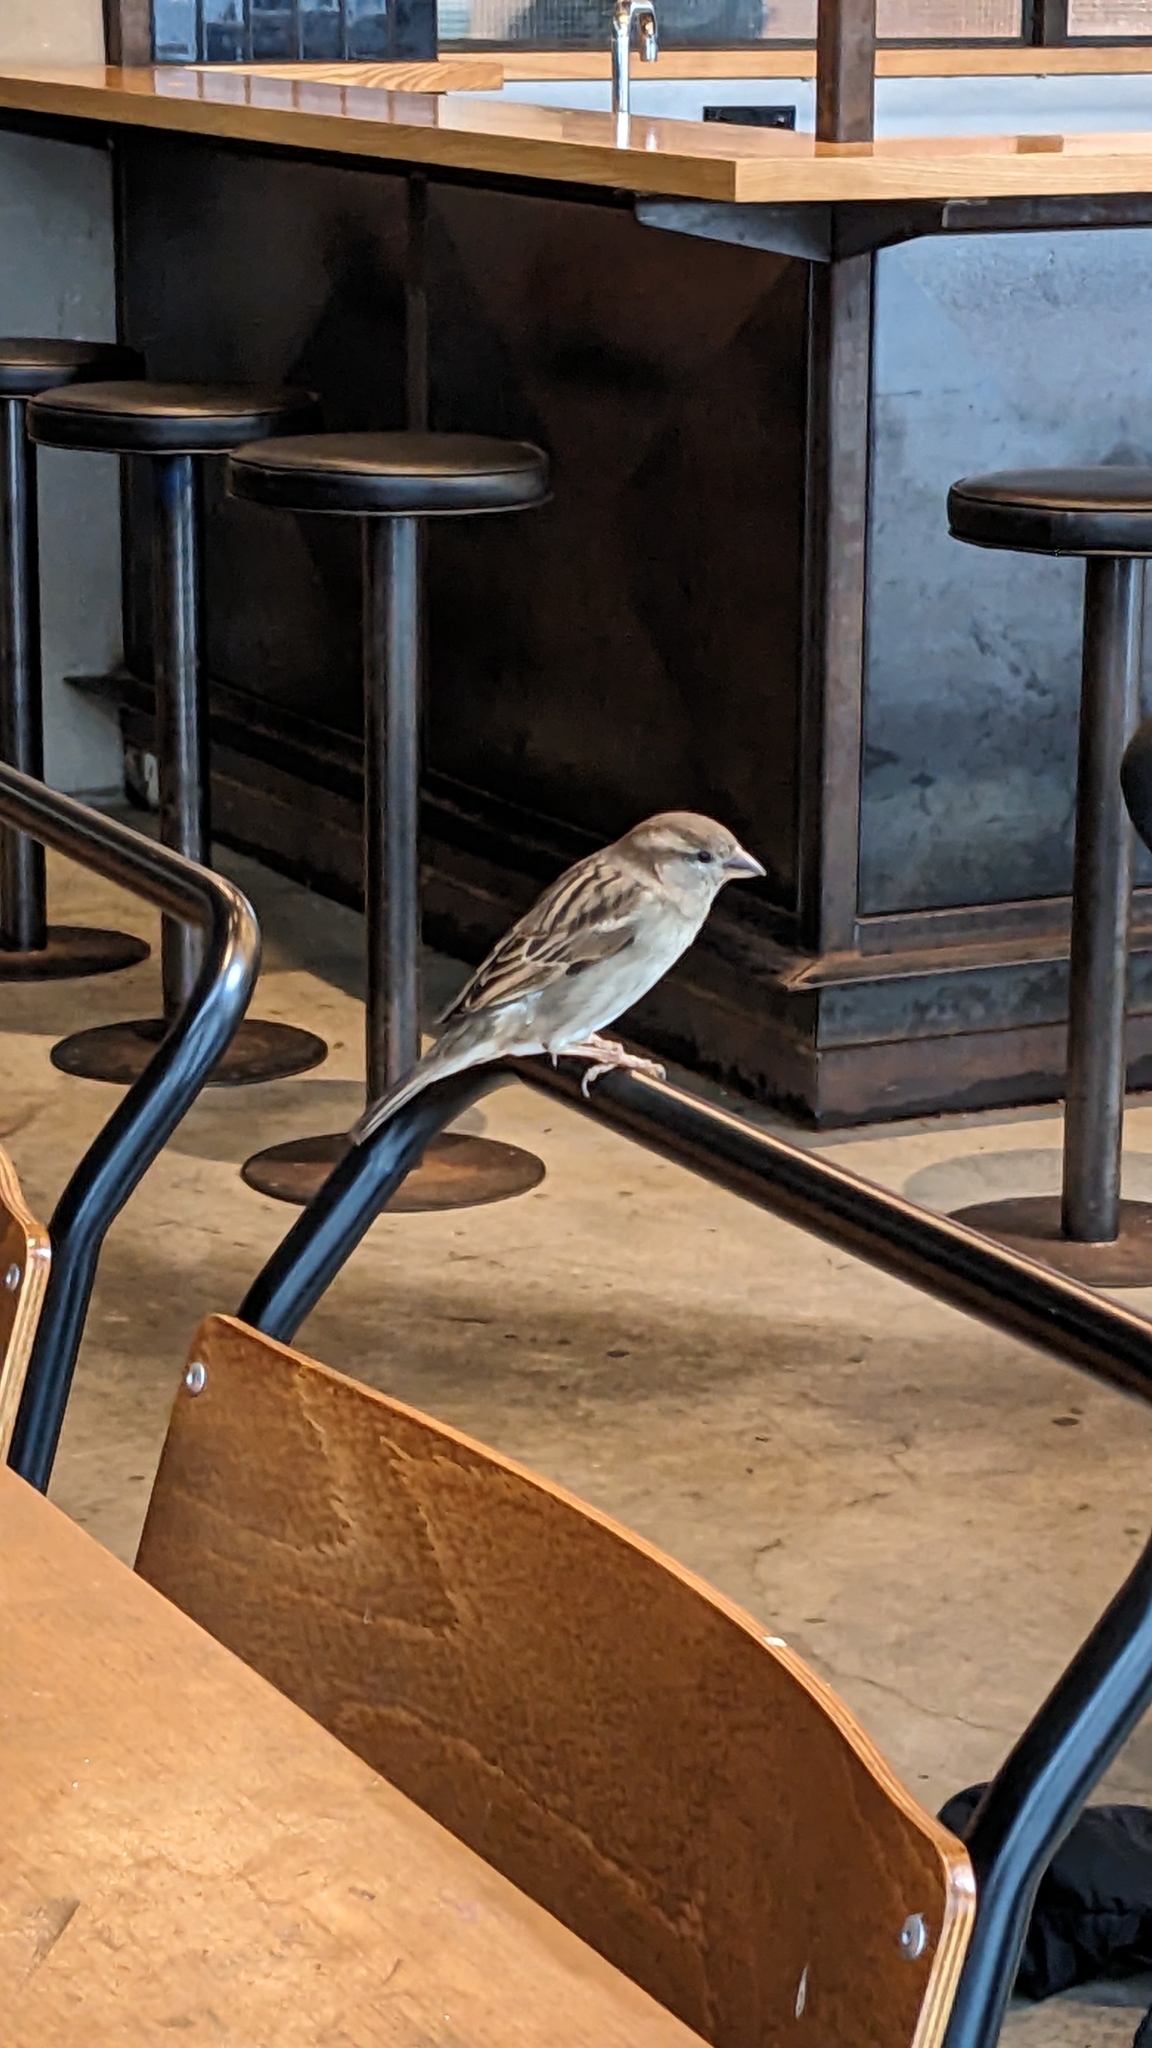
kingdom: Animalia
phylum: Chordata
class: Aves
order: Passeriformes
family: Passeridae
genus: Passer
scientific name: Passer domesticus
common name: House sparrow
